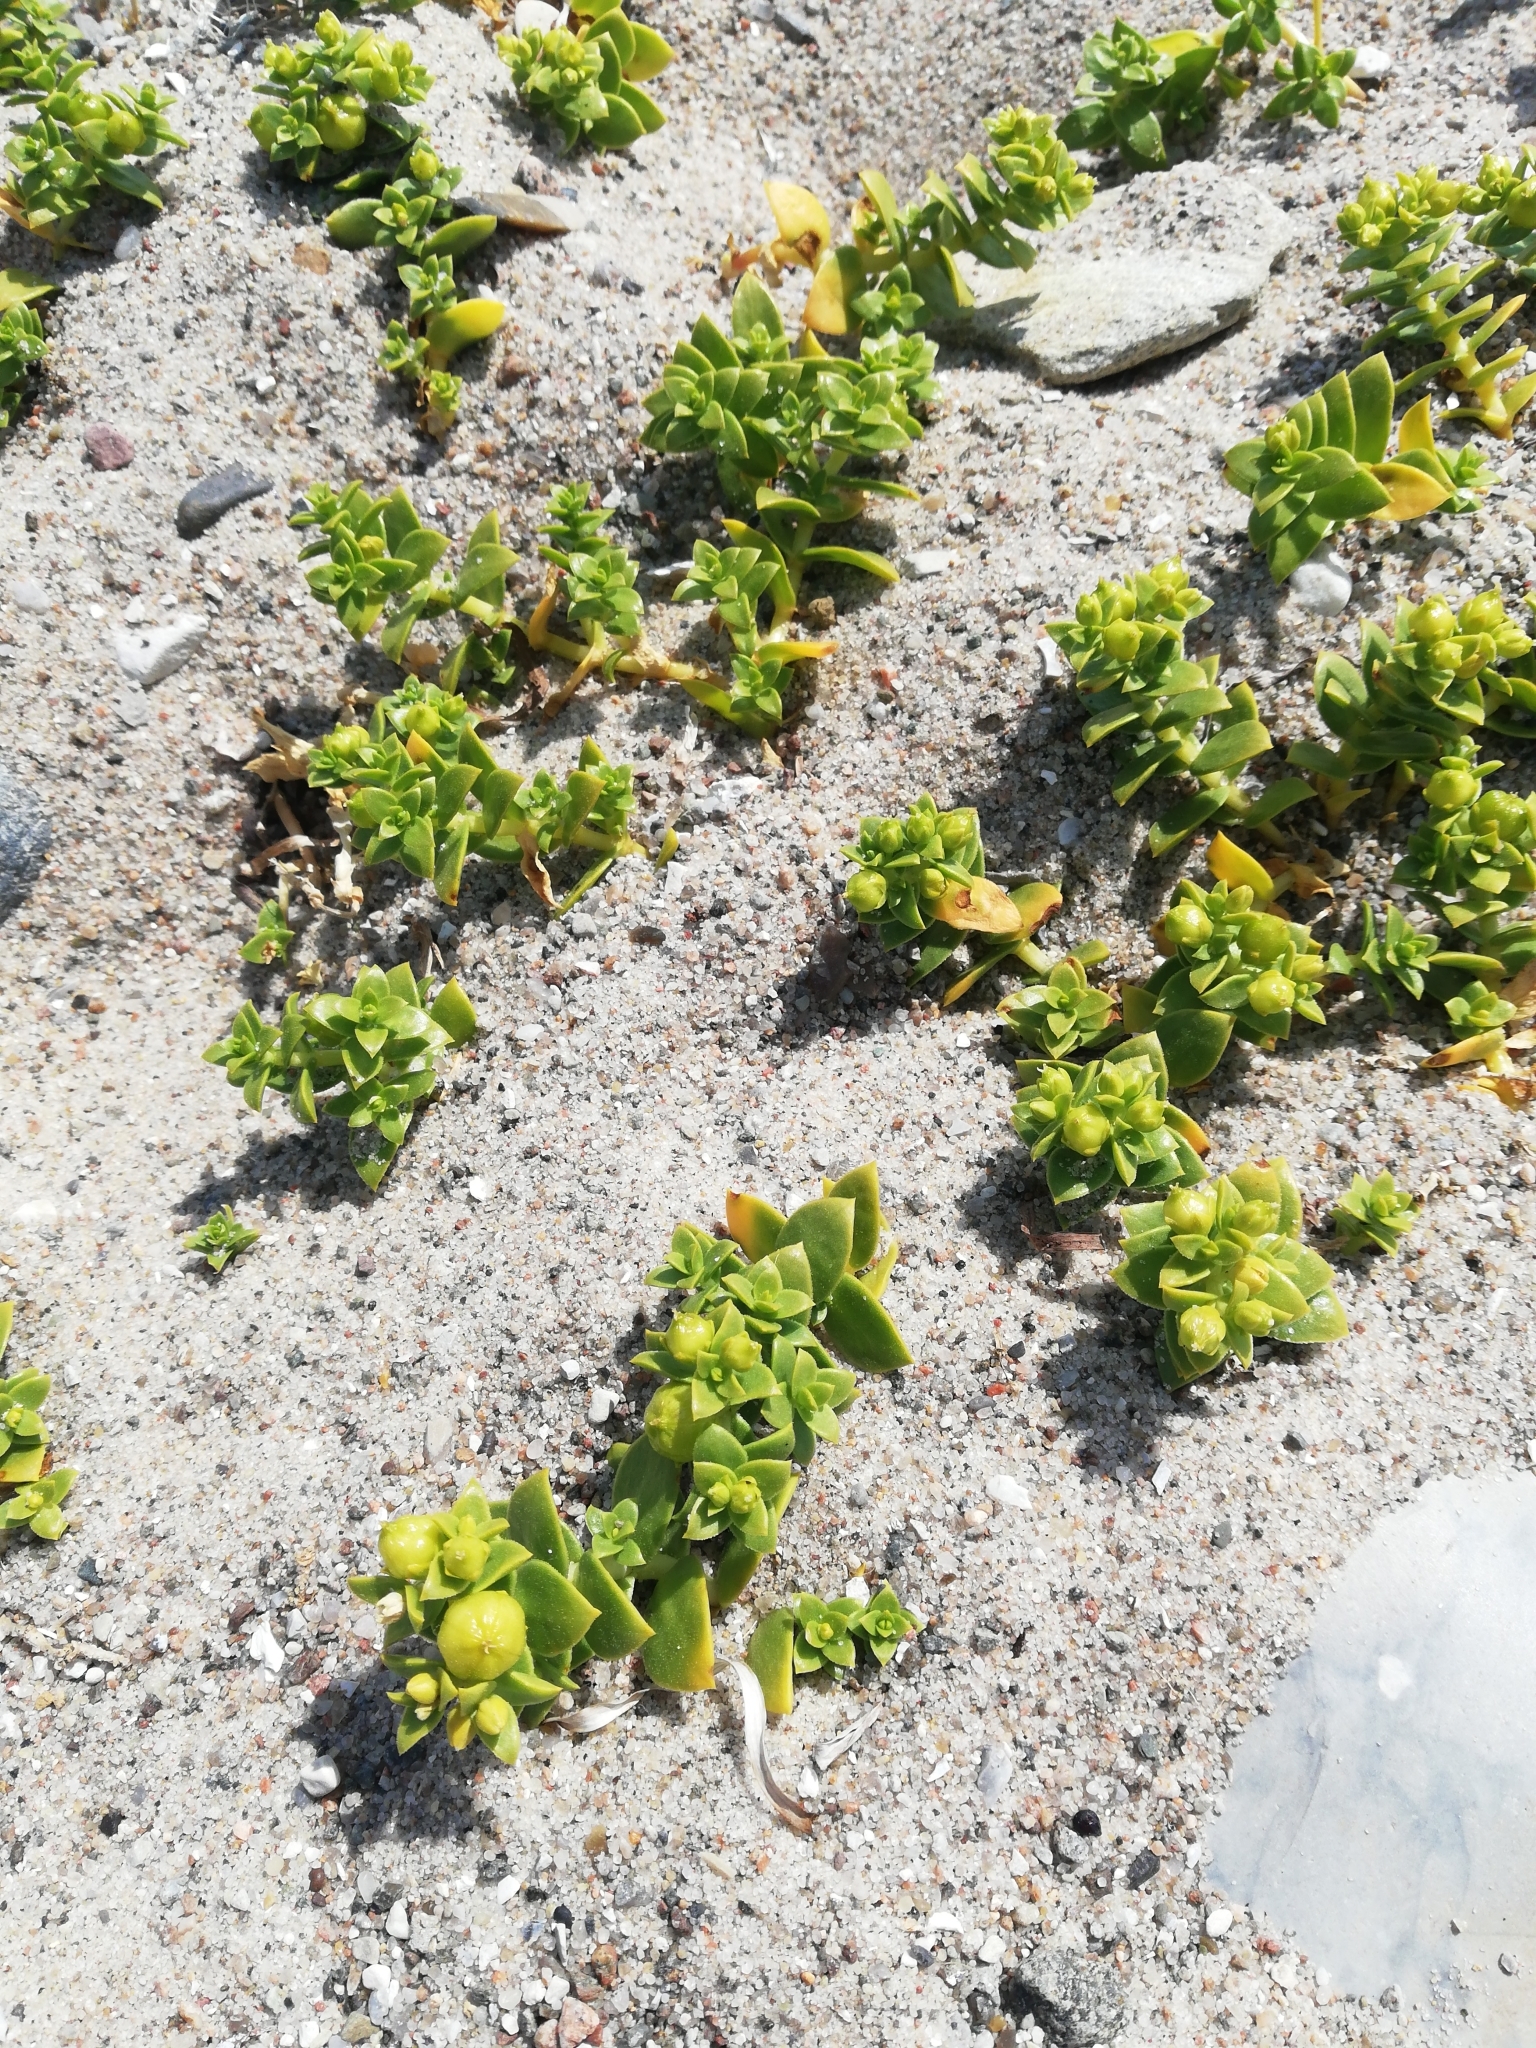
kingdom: Plantae
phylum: Tracheophyta
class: Magnoliopsida
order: Caryophyllales
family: Caryophyllaceae
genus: Honckenya
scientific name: Honckenya peploides
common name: Sea sandwort
